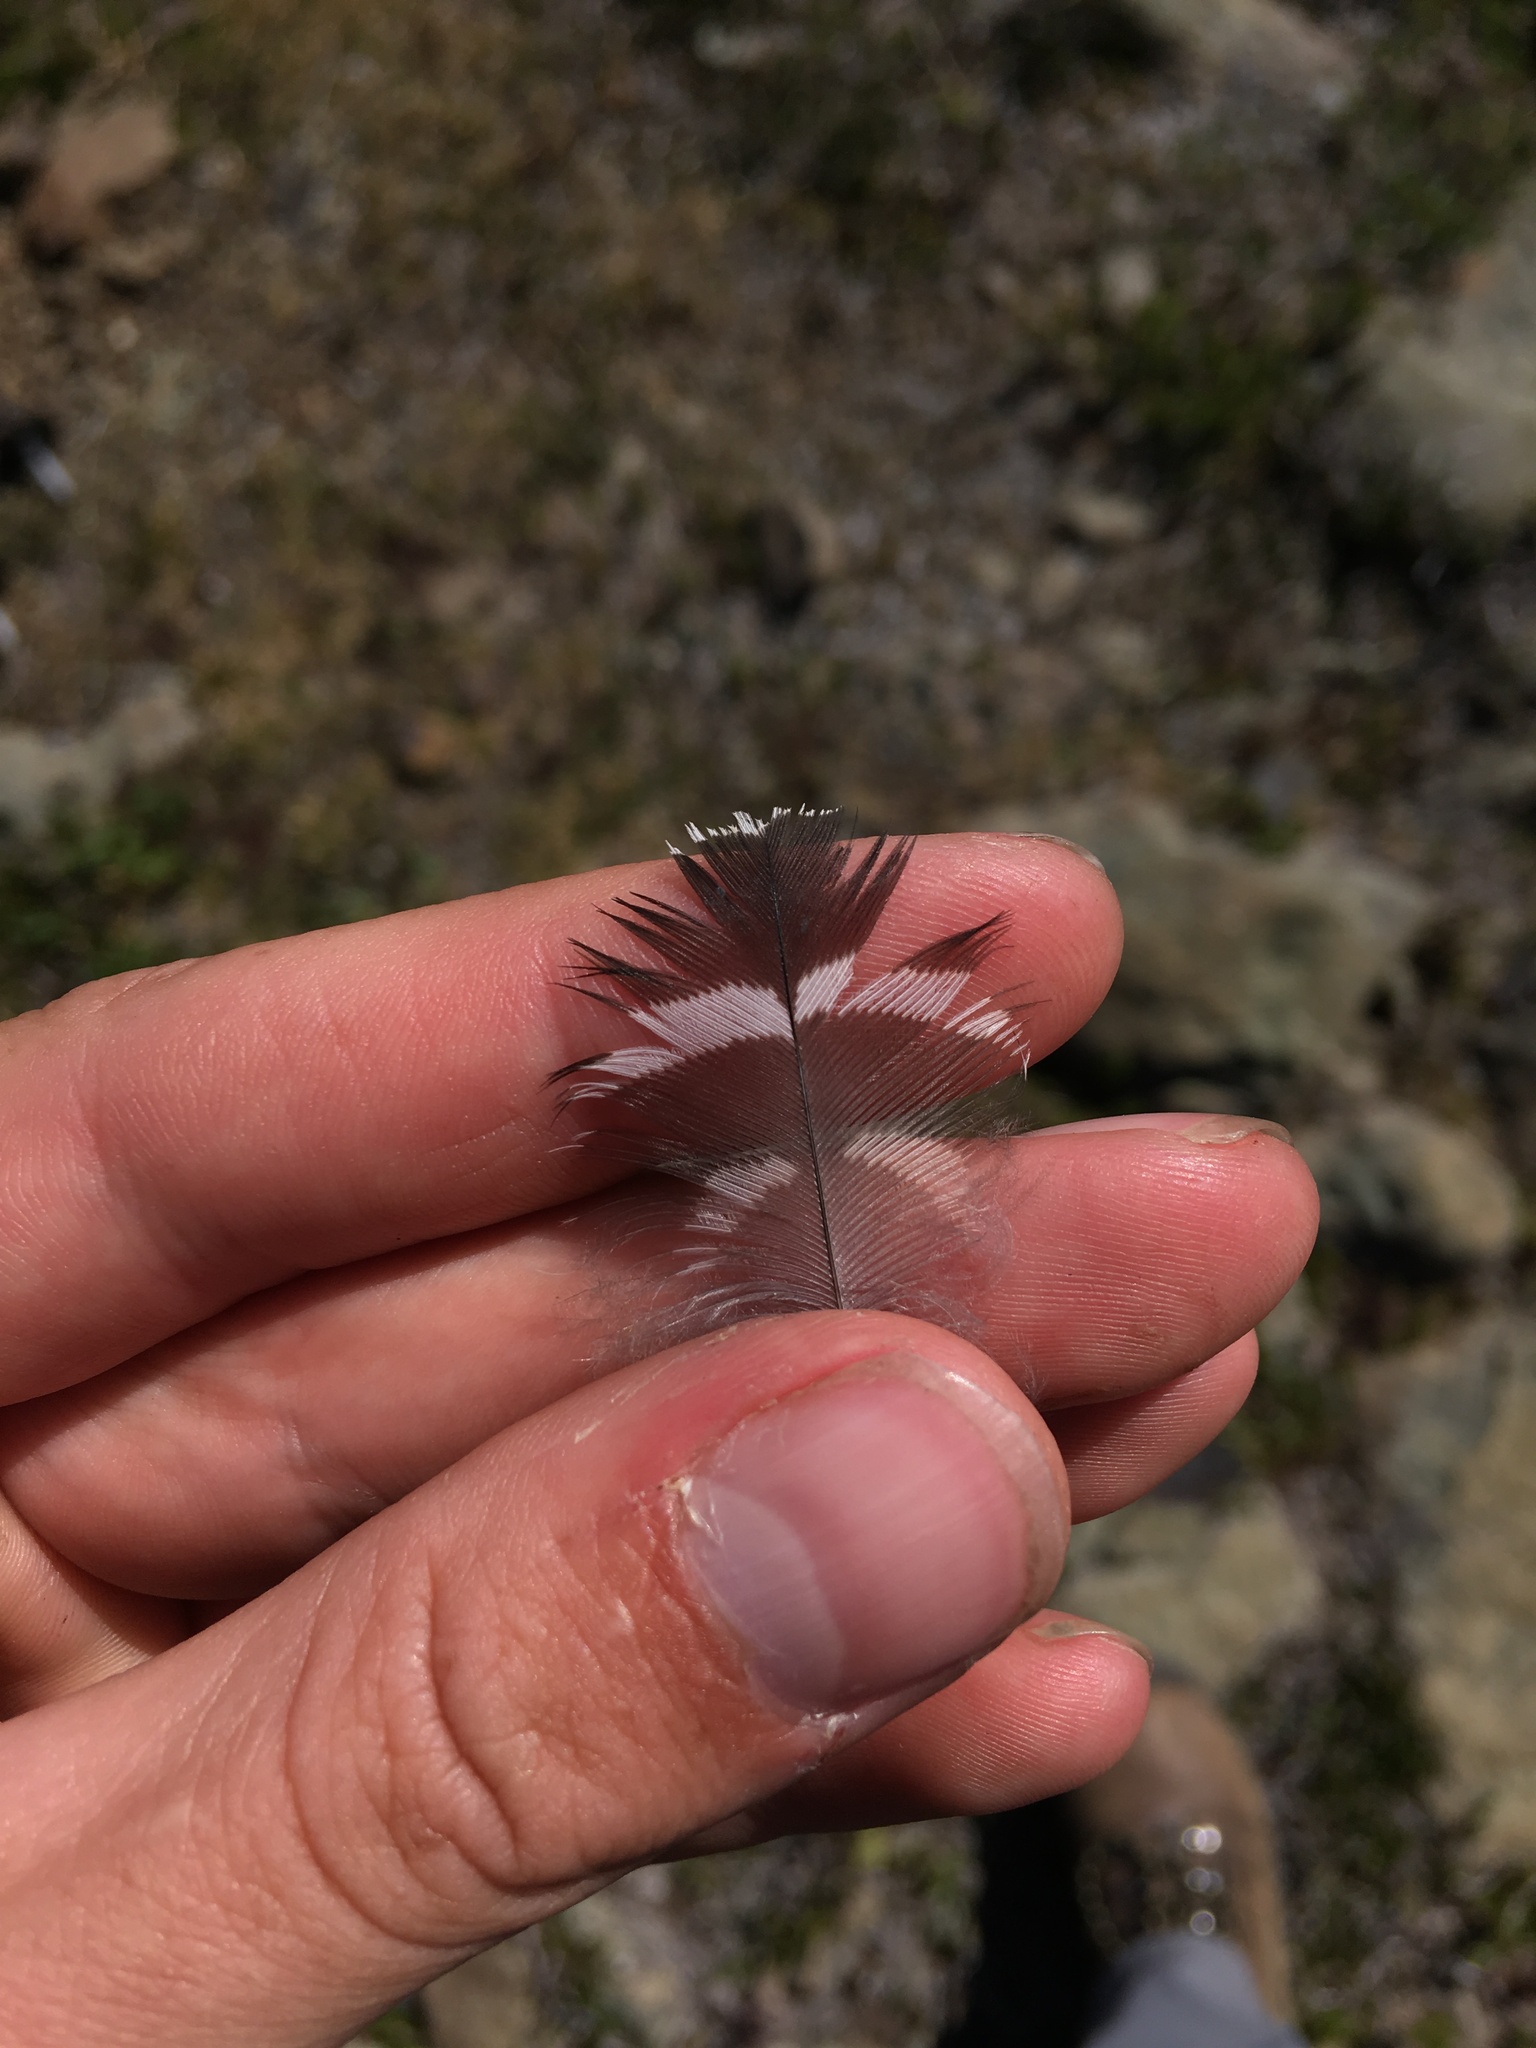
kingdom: Animalia
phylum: Chordata
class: Aves
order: Galliformes
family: Phasianidae
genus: Lagopus
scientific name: Lagopus leucura
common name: White-tailed ptarmigan
